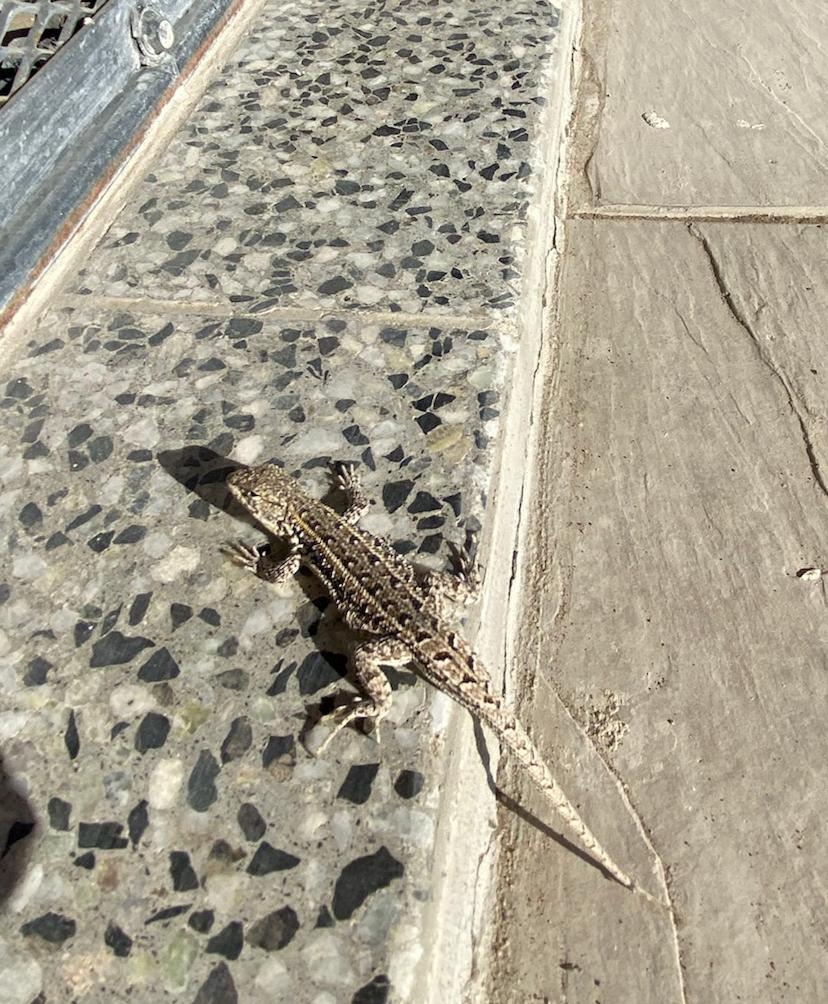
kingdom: Animalia
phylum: Chordata
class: Squamata
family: Liolaemidae
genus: Liolaemus
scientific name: Liolaemus wiegmannii
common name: Wiegmann's tree iguana
